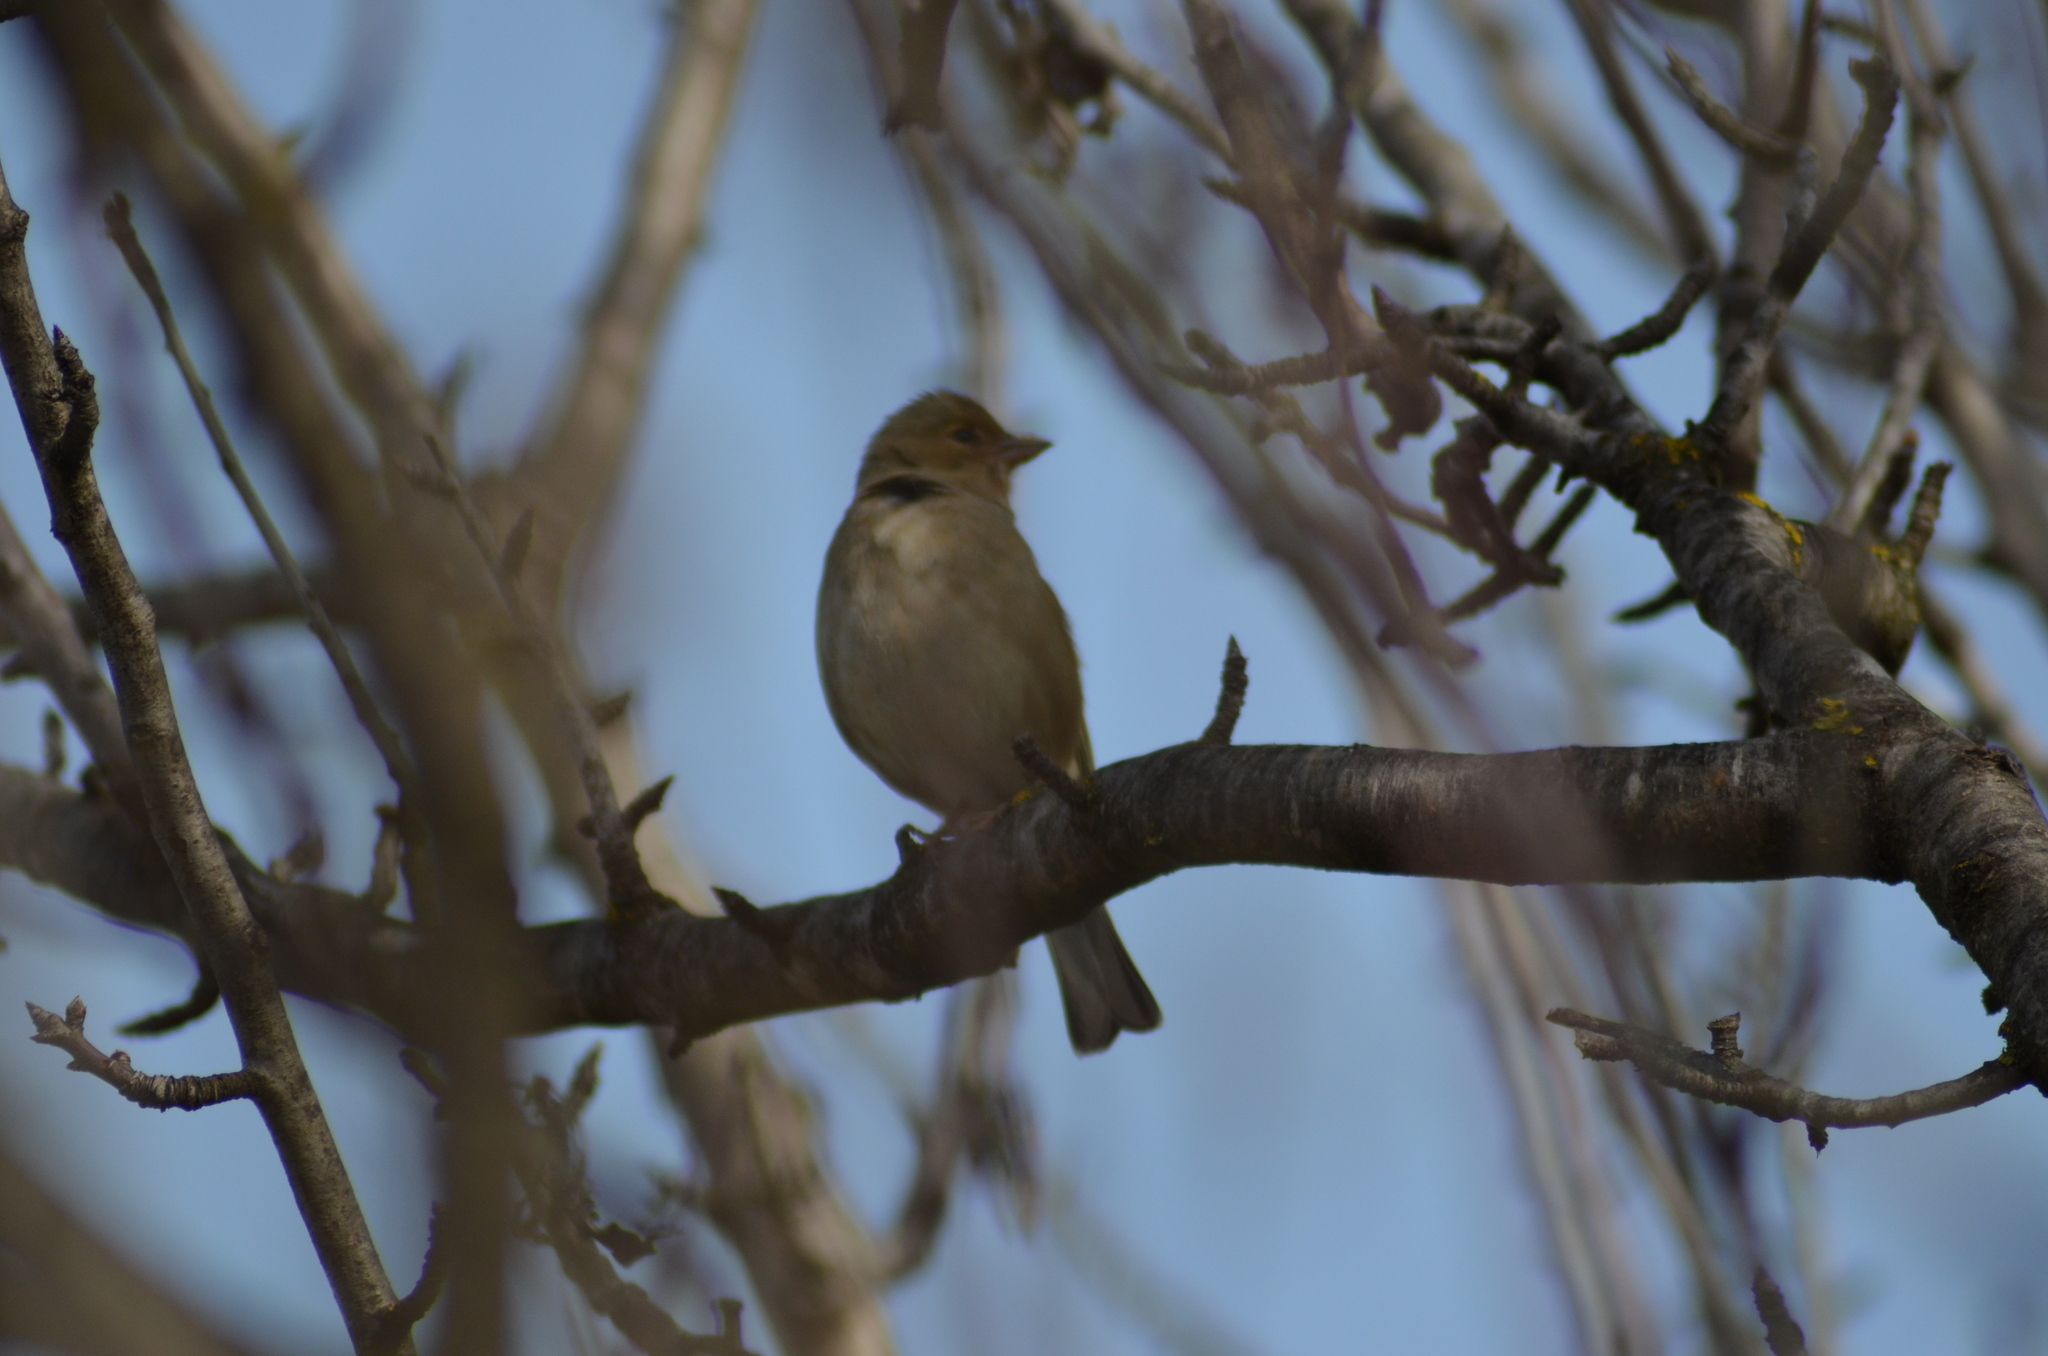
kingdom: Animalia
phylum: Chordata
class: Aves
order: Passeriformes
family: Fringillidae
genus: Fringilla
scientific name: Fringilla coelebs
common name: Common chaffinch
